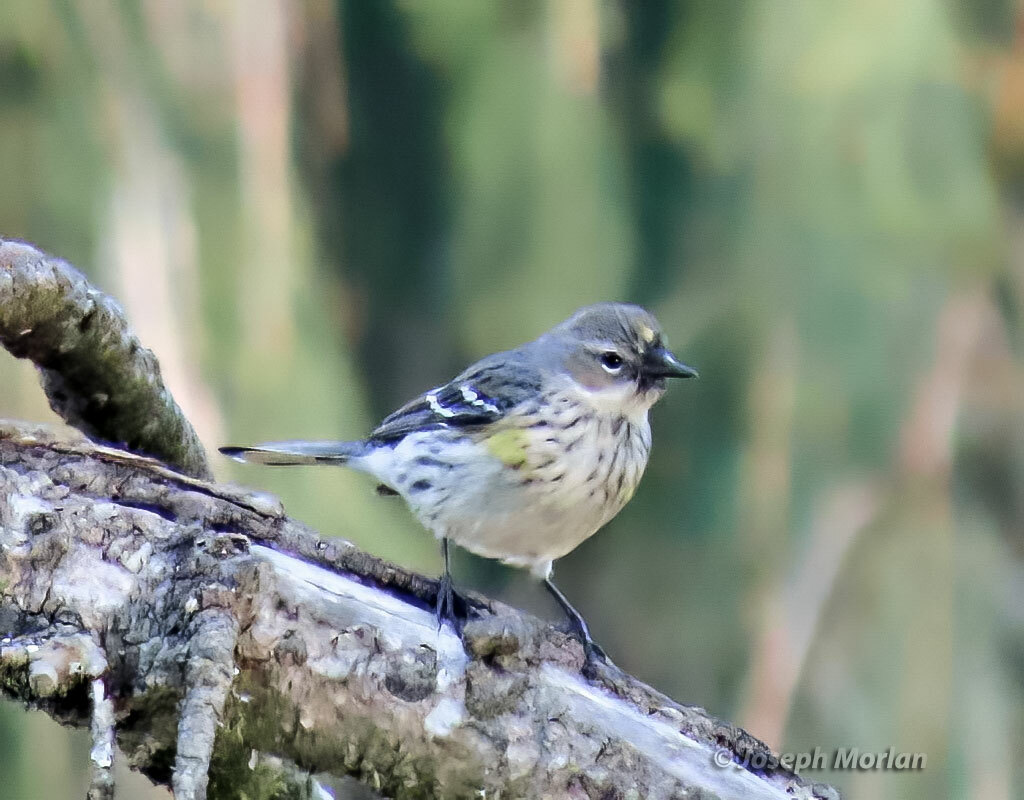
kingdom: Animalia
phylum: Chordata
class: Aves
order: Passeriformes
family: Parulidae
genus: Setophaga
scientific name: Setophaga coronata
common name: Myrtle warbler
